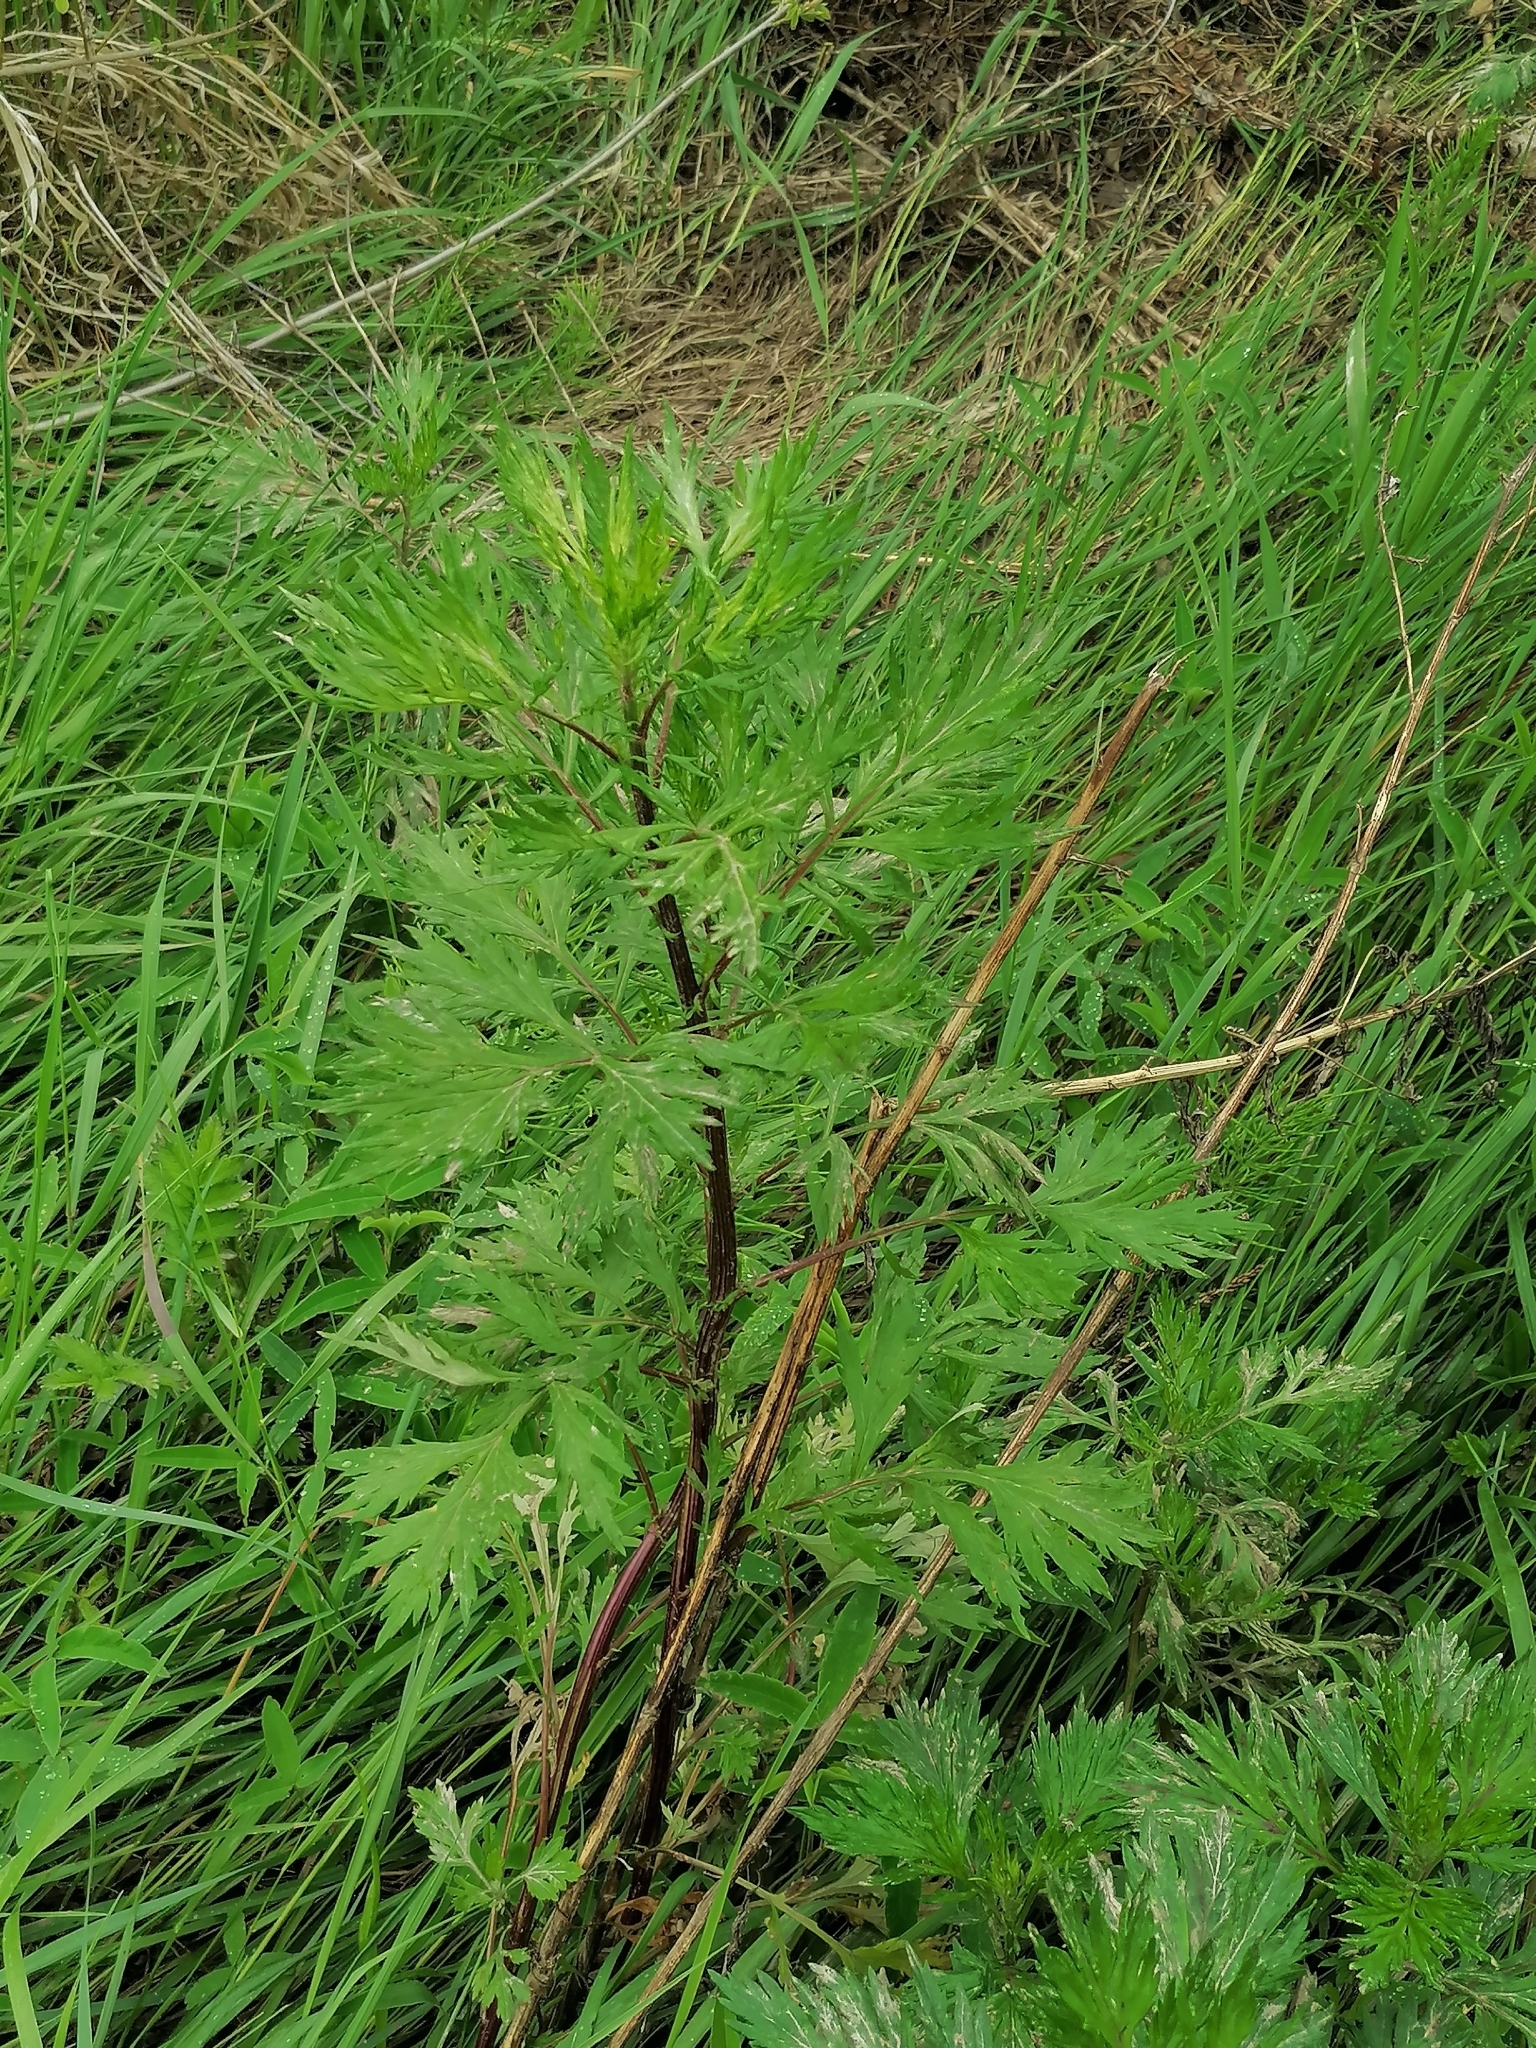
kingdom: Plantae
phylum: Tracheophyta
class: Magnoliopsida
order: Asterales
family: Asteraceae
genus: Artemisia
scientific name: Artemisia vulgaris
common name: Mugwort
